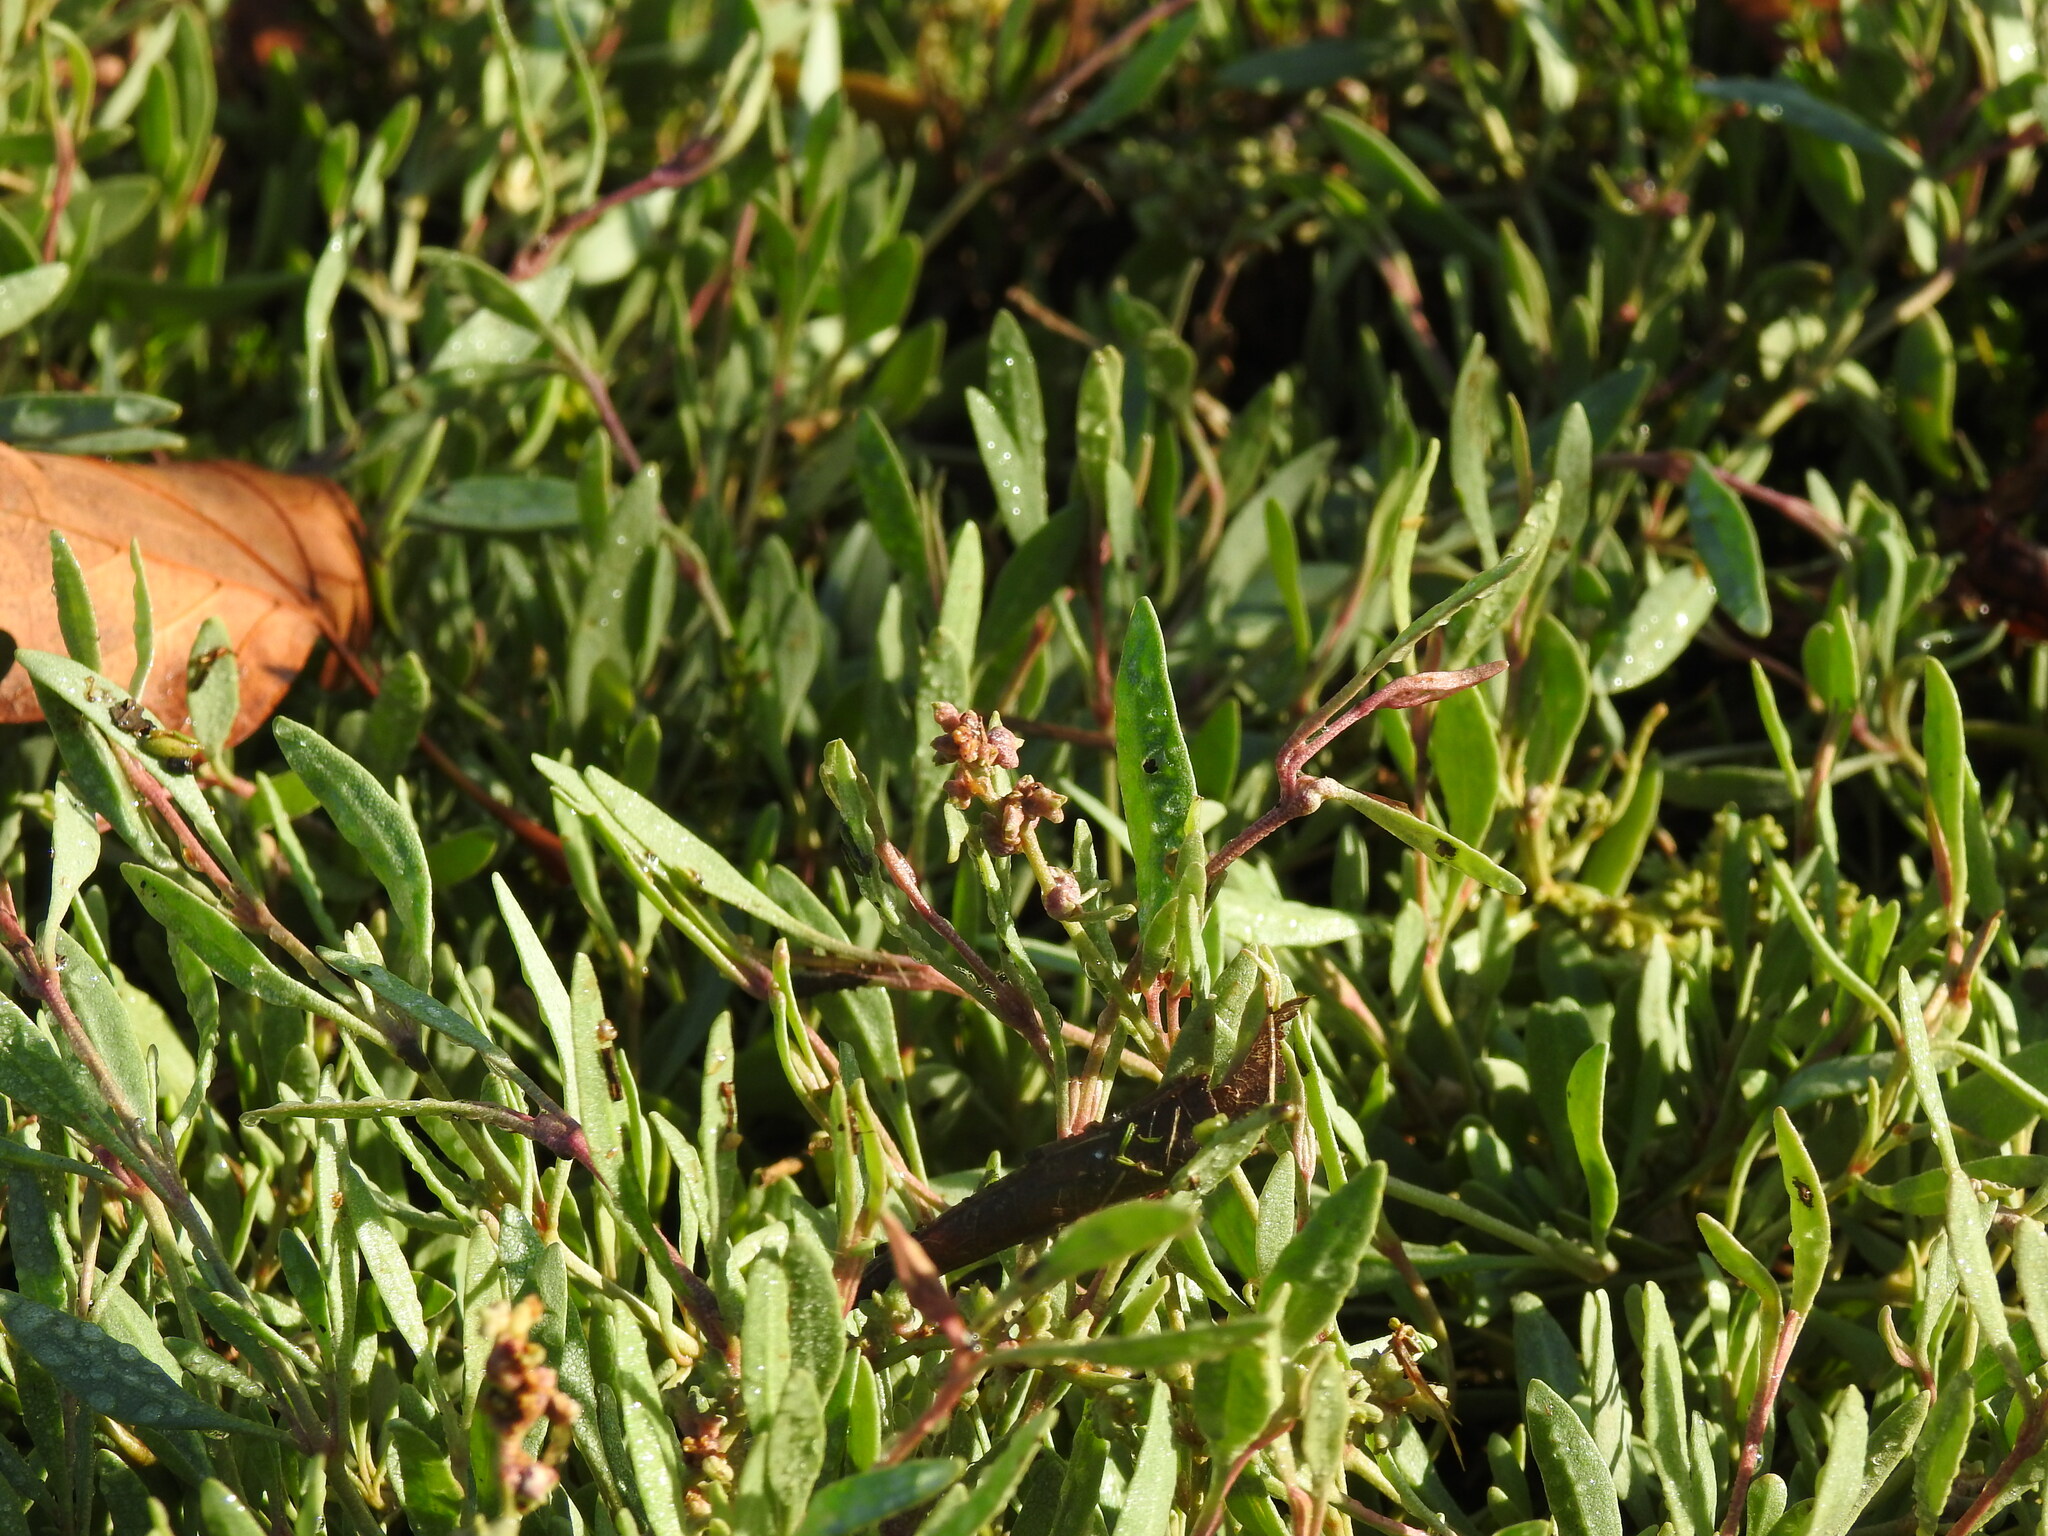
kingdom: Plantae
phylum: Tracheophyta
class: Magnoliopsida
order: Caryophyllales
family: Amaranthaceae
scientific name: Amaranthaceae
